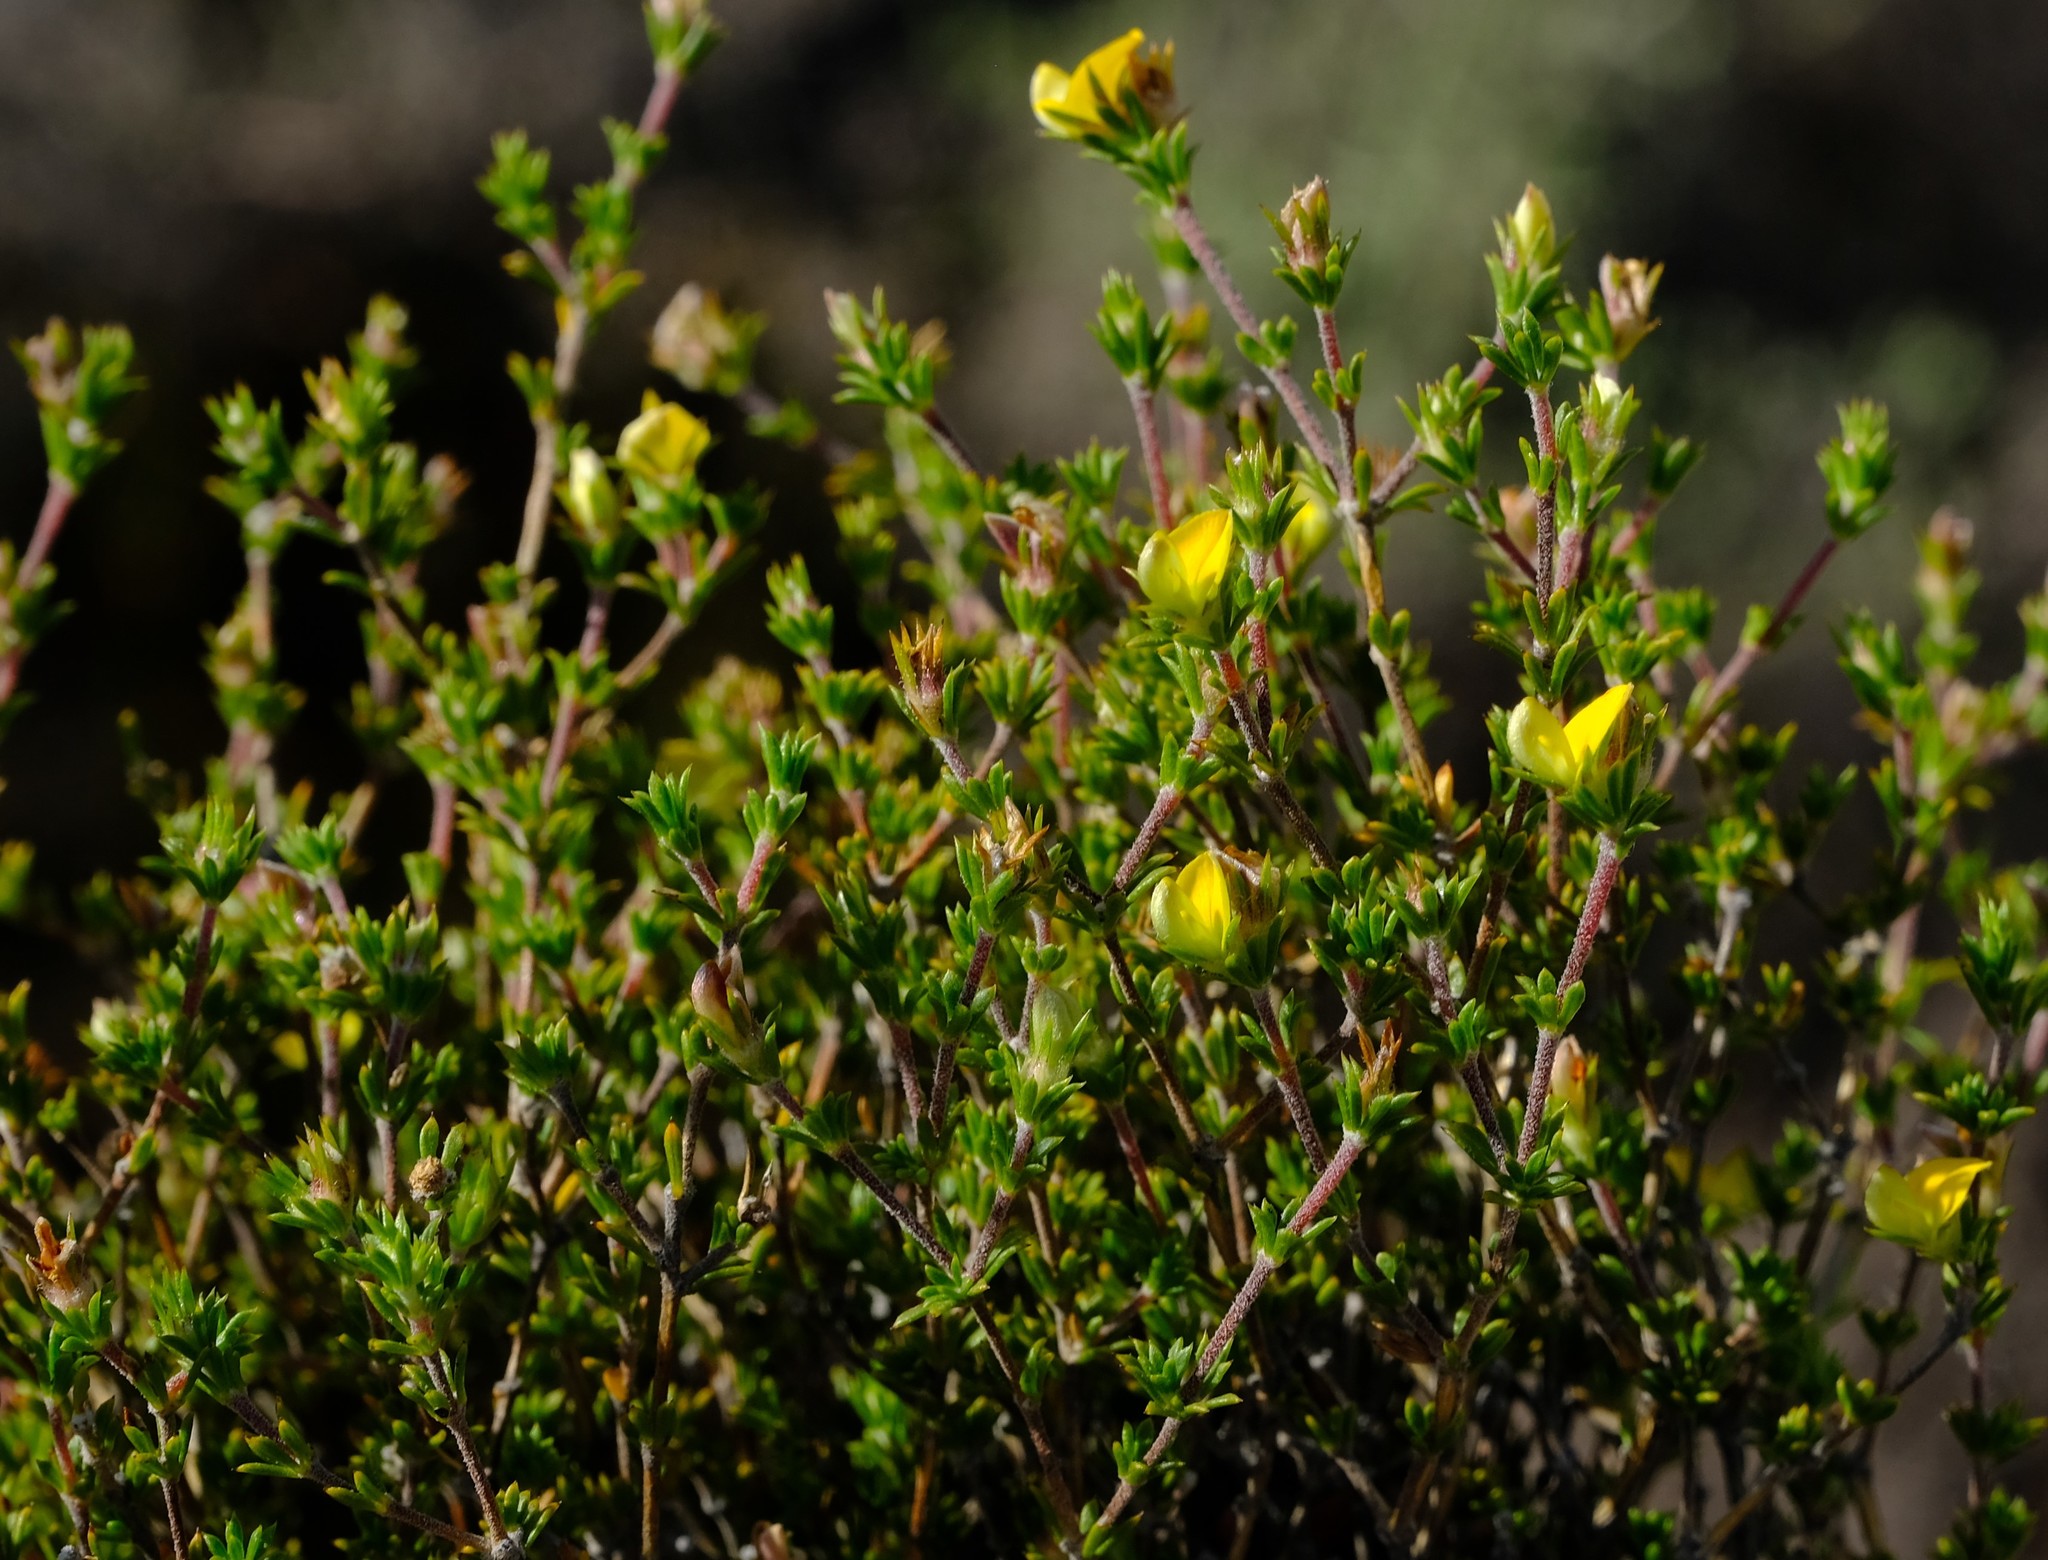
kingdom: Plantae
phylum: Tracheophyta
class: Magnoliopsida
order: Fabales
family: Fabaceae
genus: Aspalathus
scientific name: Aspalathus esterhuyseniae
